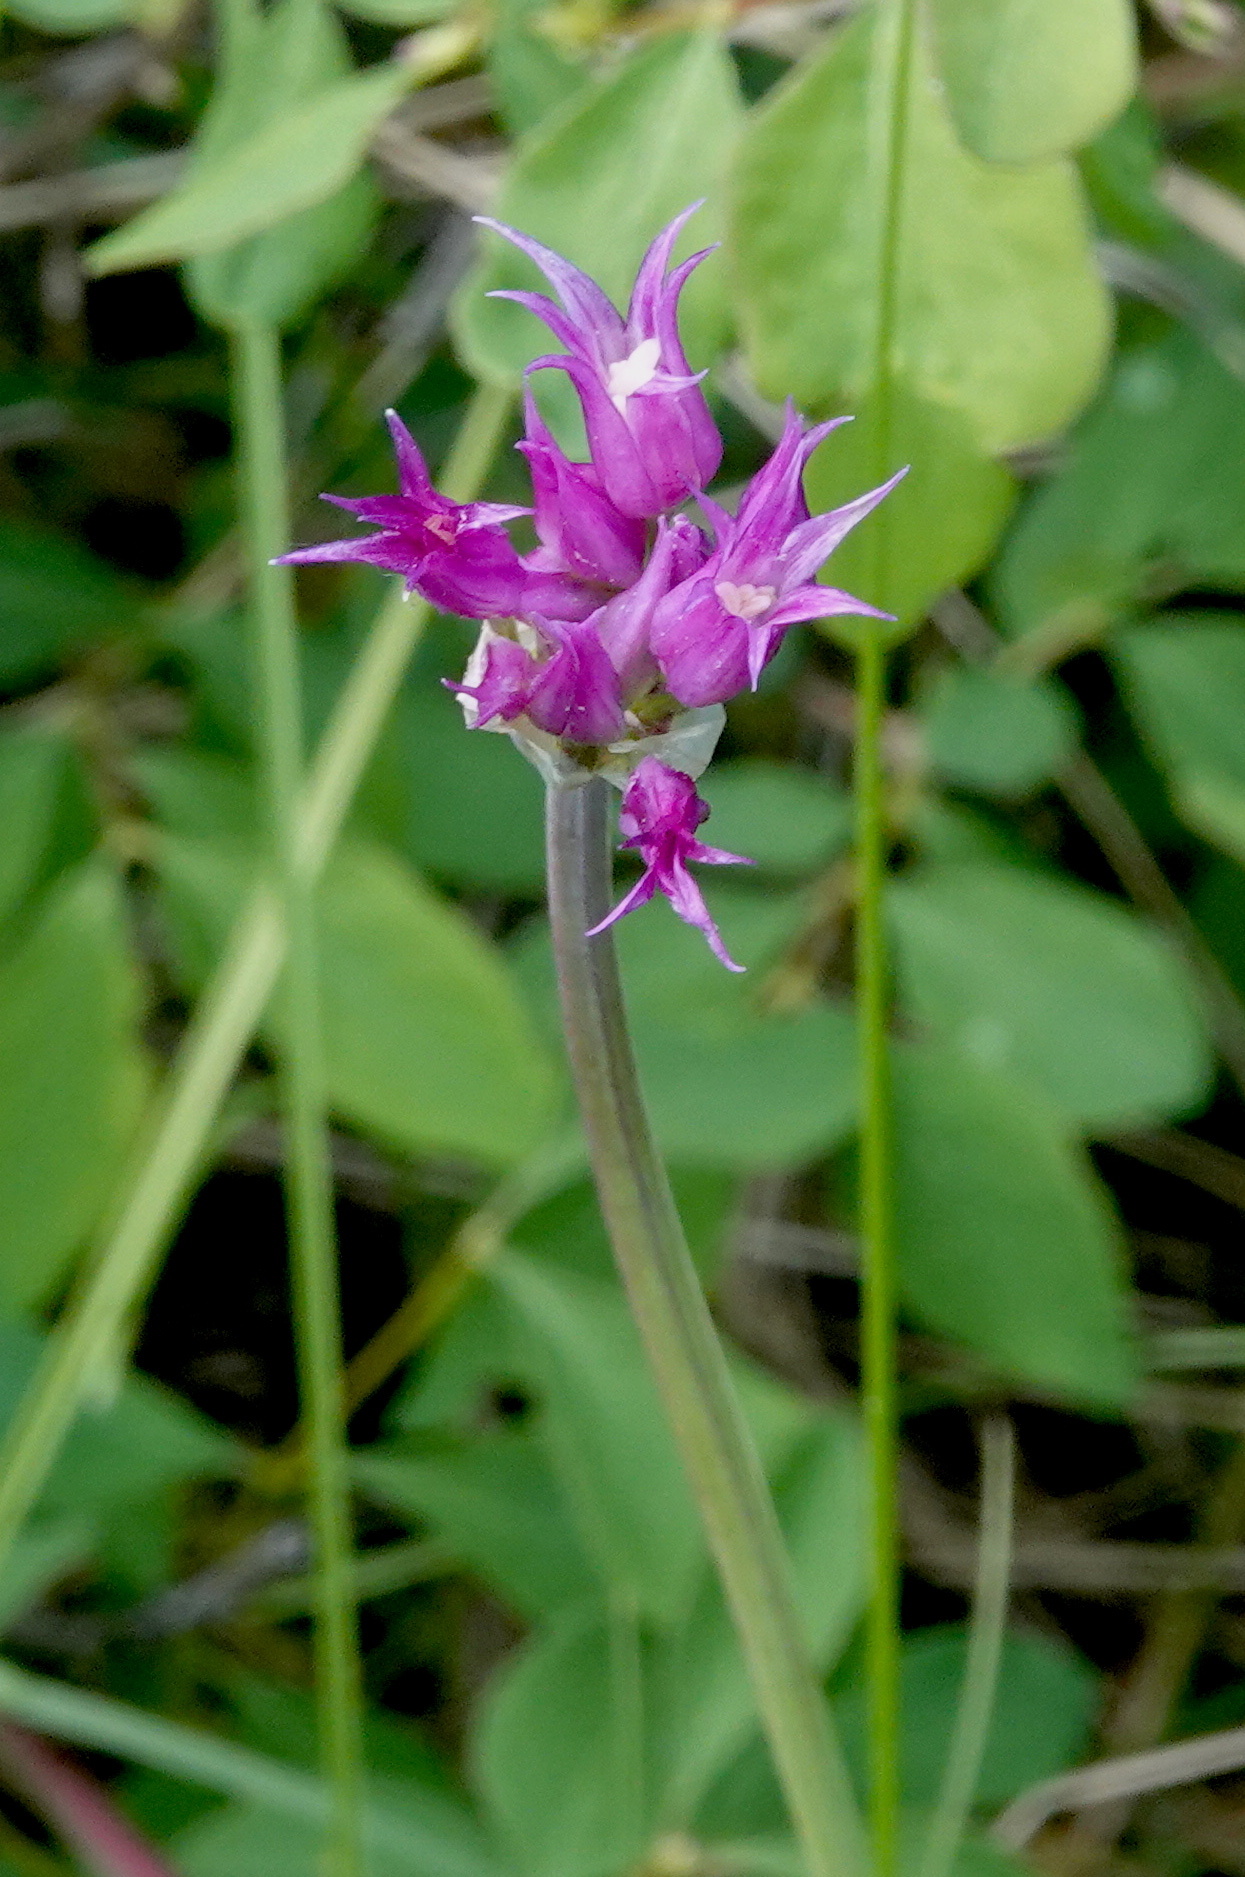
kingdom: Plantae
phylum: Tracheophyta
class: Liliopsida
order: Asparagales
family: Amaryllidaceae
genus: Allium
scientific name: Allium brevistylum
